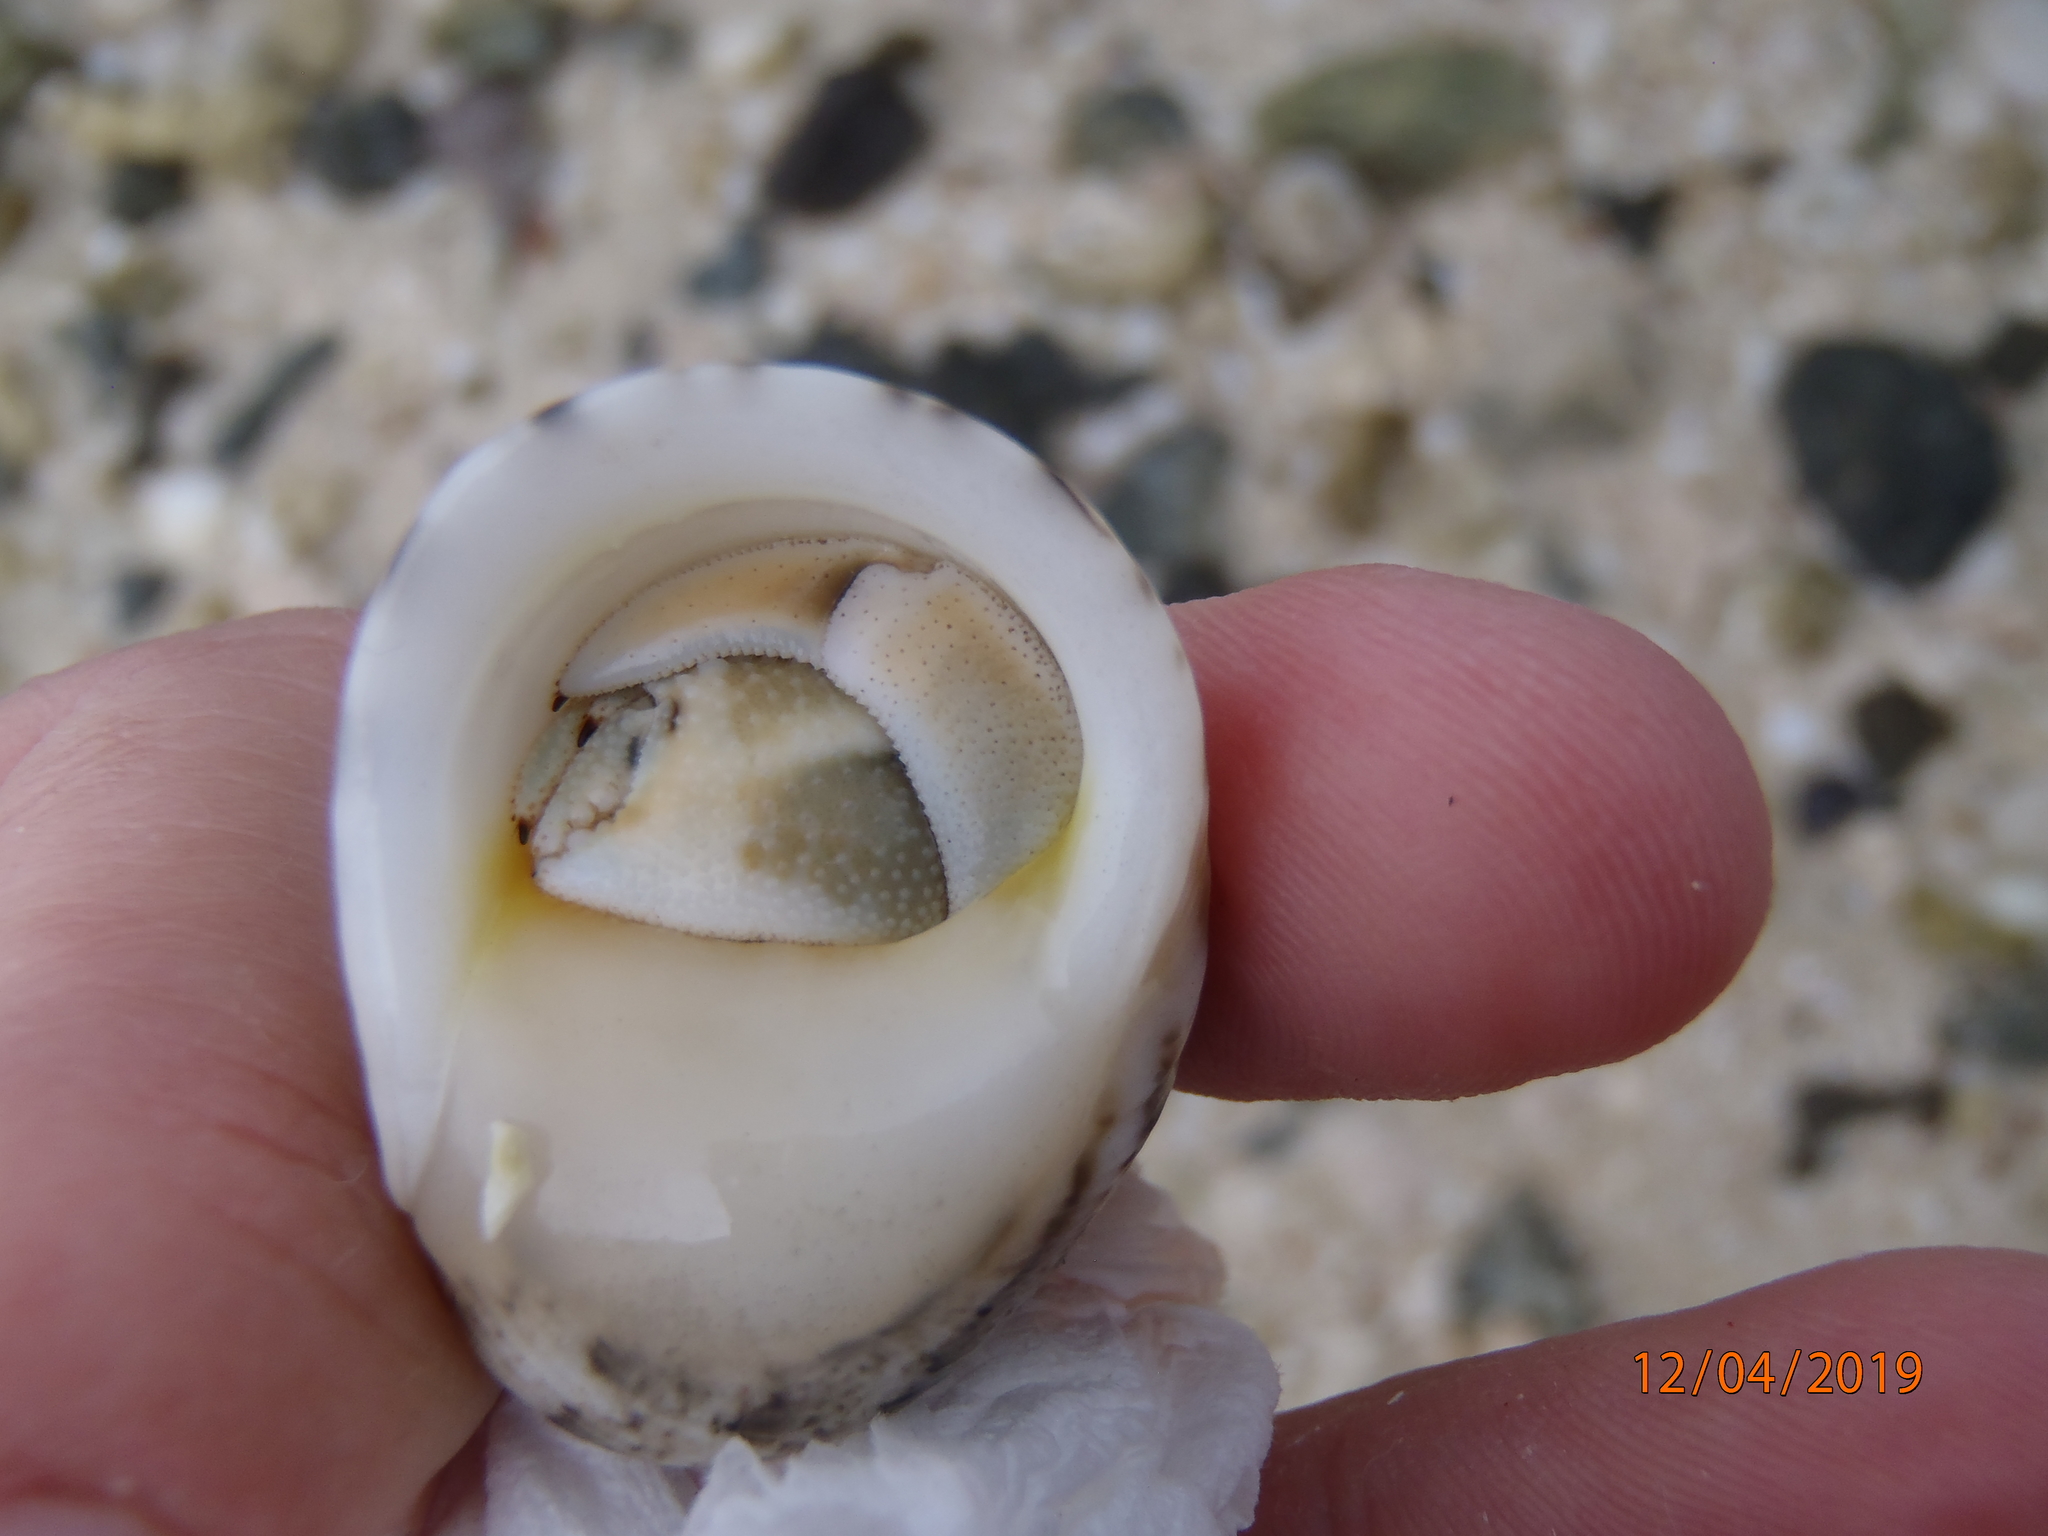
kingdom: Animalia
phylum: Arthropoda
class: Malacostraca
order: Decapoda
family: Coenobitidae
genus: Coenobita
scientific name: Coenobita rugosus
